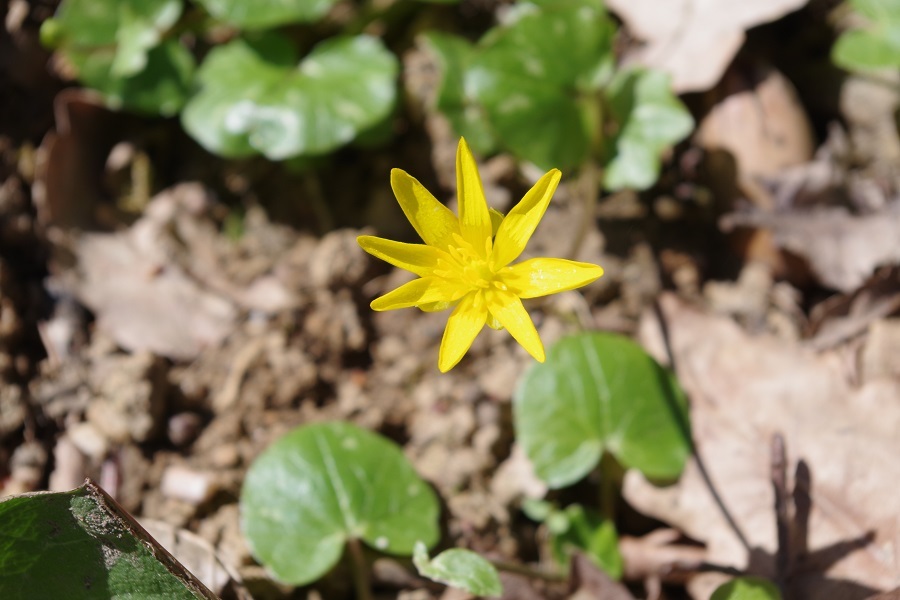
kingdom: Plantae
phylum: Tracheophyta
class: Magnoliopsida
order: Ranunculales
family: Ranunculaceae
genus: Ficaria
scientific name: Ficaria verna
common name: Lesser celandine
